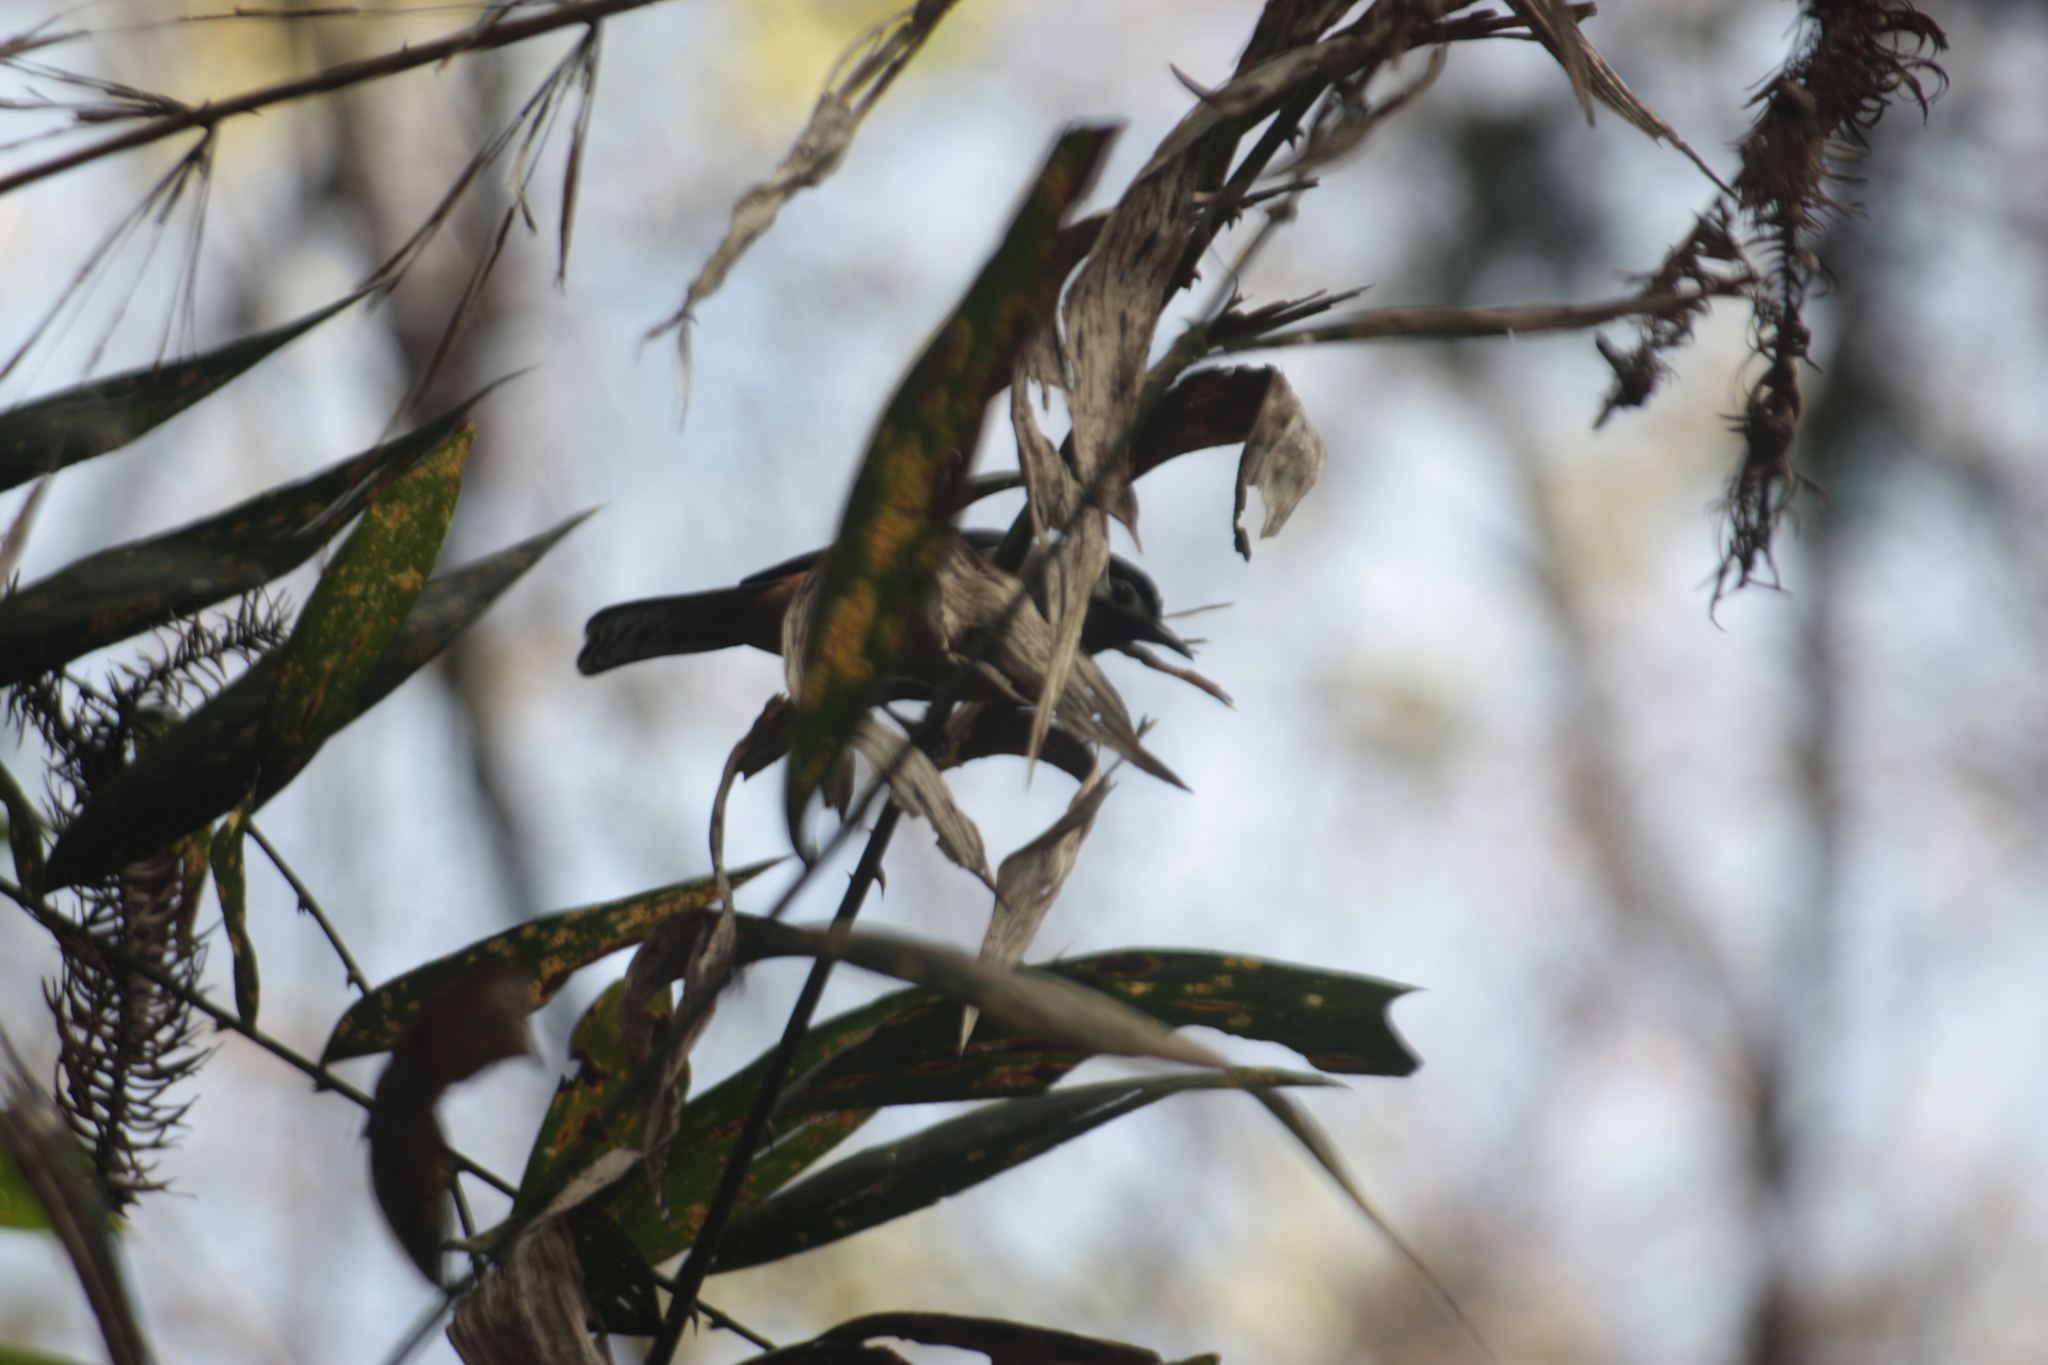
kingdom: Animalia
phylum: Chordata
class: Aves
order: Passeriformes
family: Leiothrichidae
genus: Heterophasia
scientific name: Heterophasia auricularis
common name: White-eared sibia
